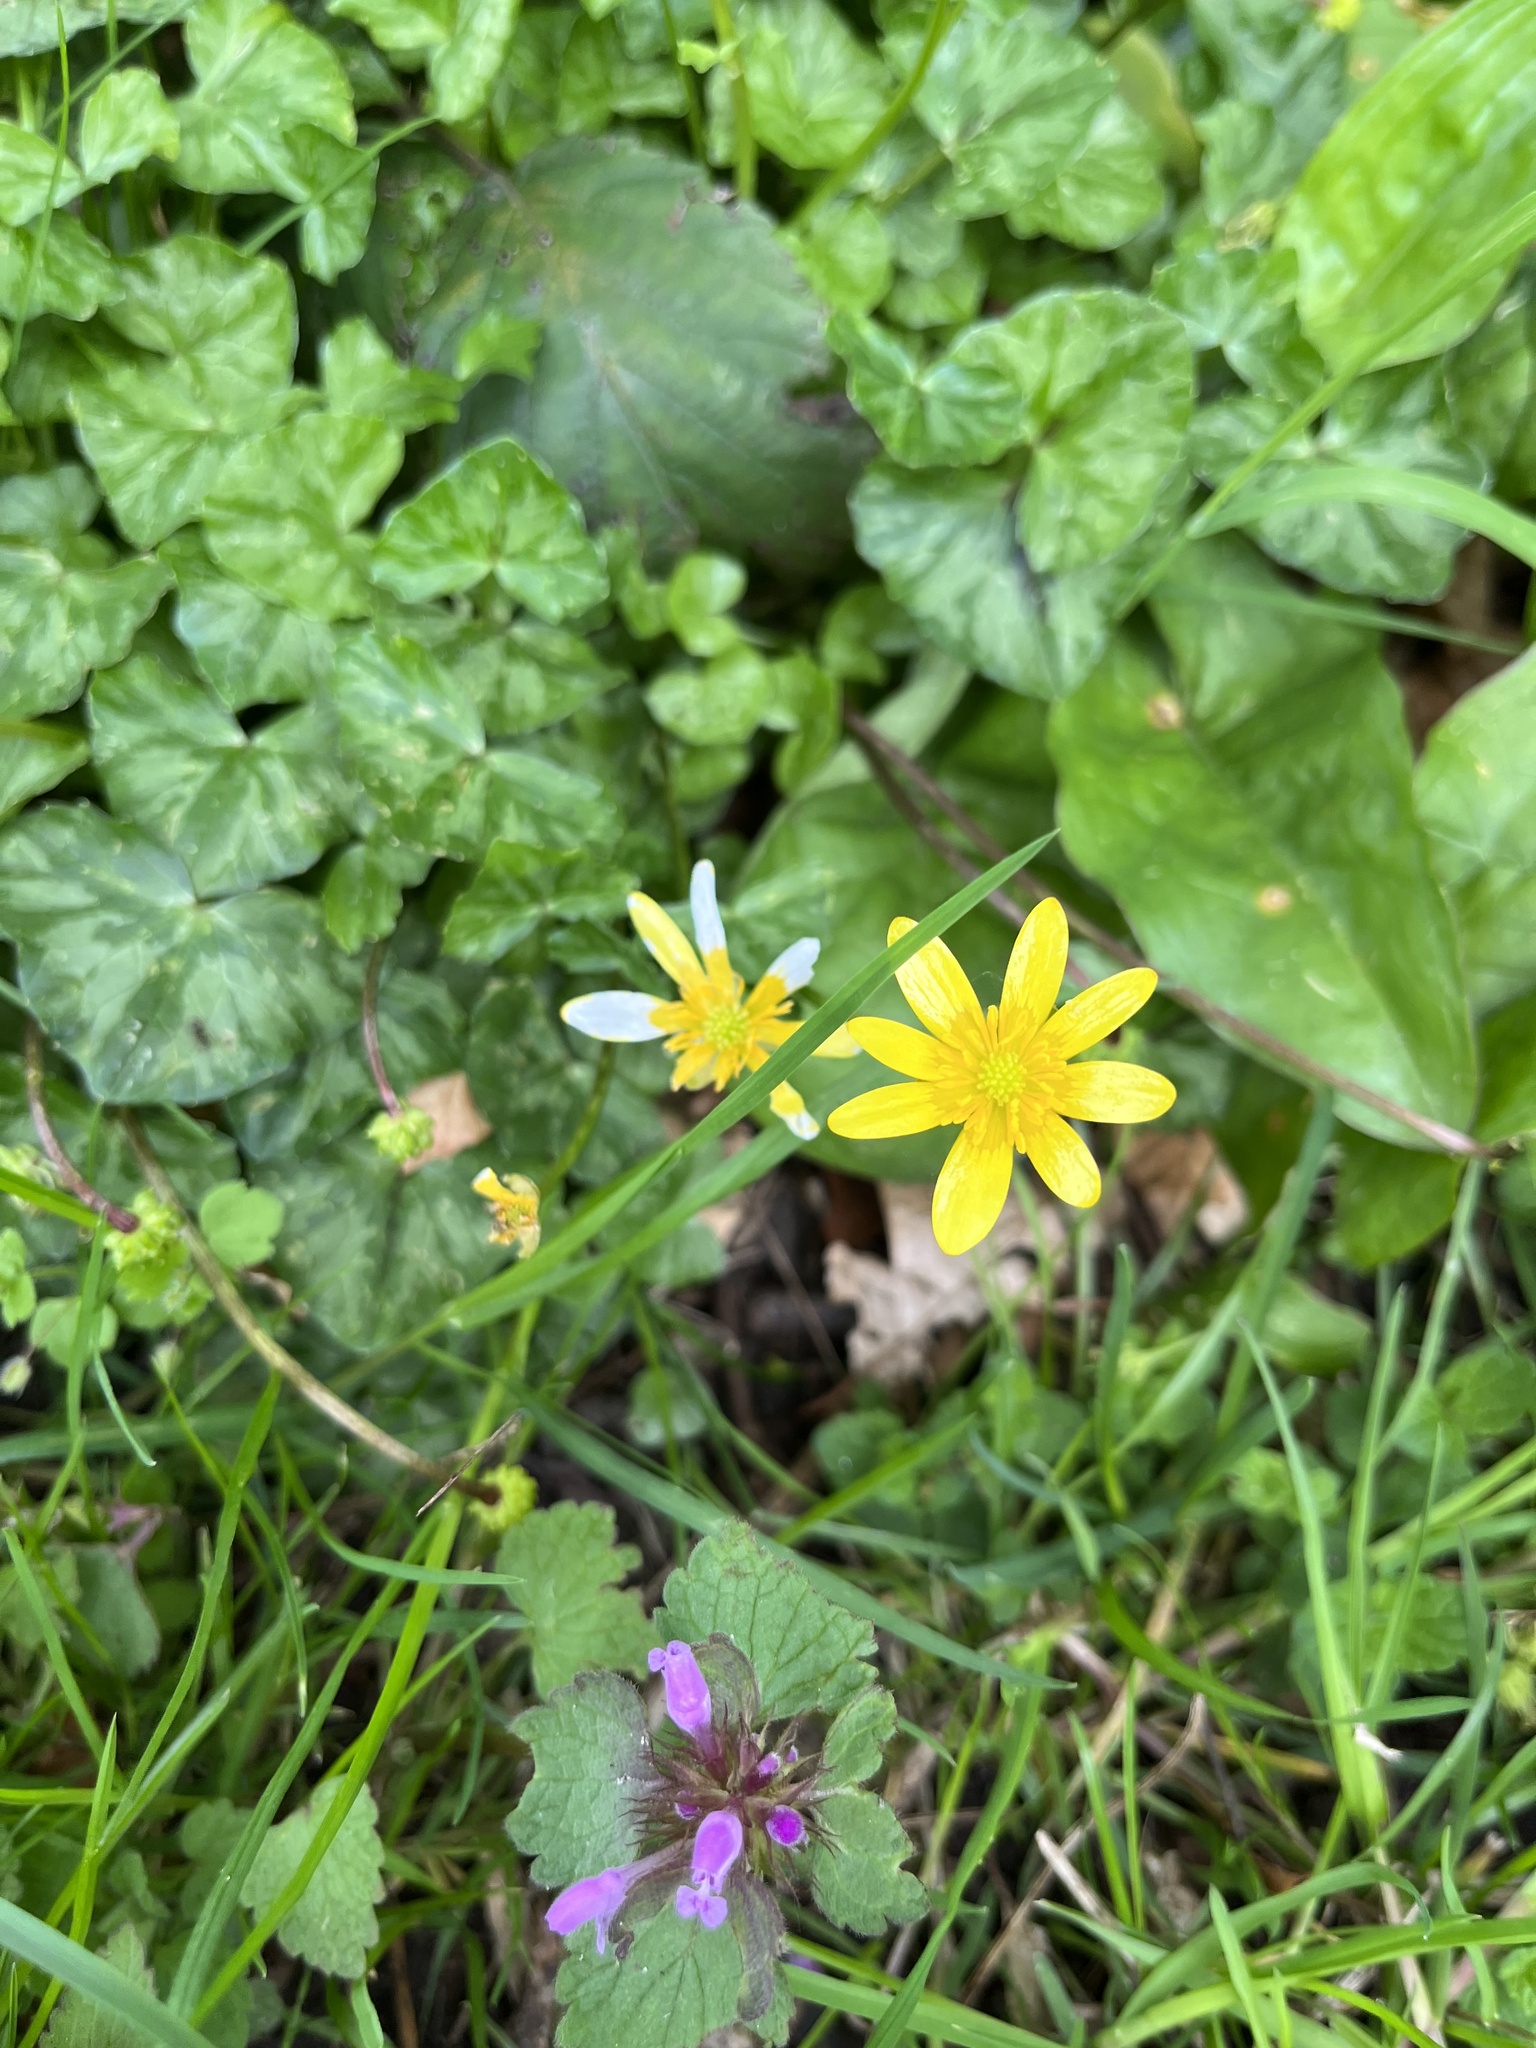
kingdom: Plantae
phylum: Tracheophyta
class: Magnoliopsida
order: Ranunculales
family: Ranunculaceae
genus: Ficaria
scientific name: Ficaria verna
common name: Lesser celandine
